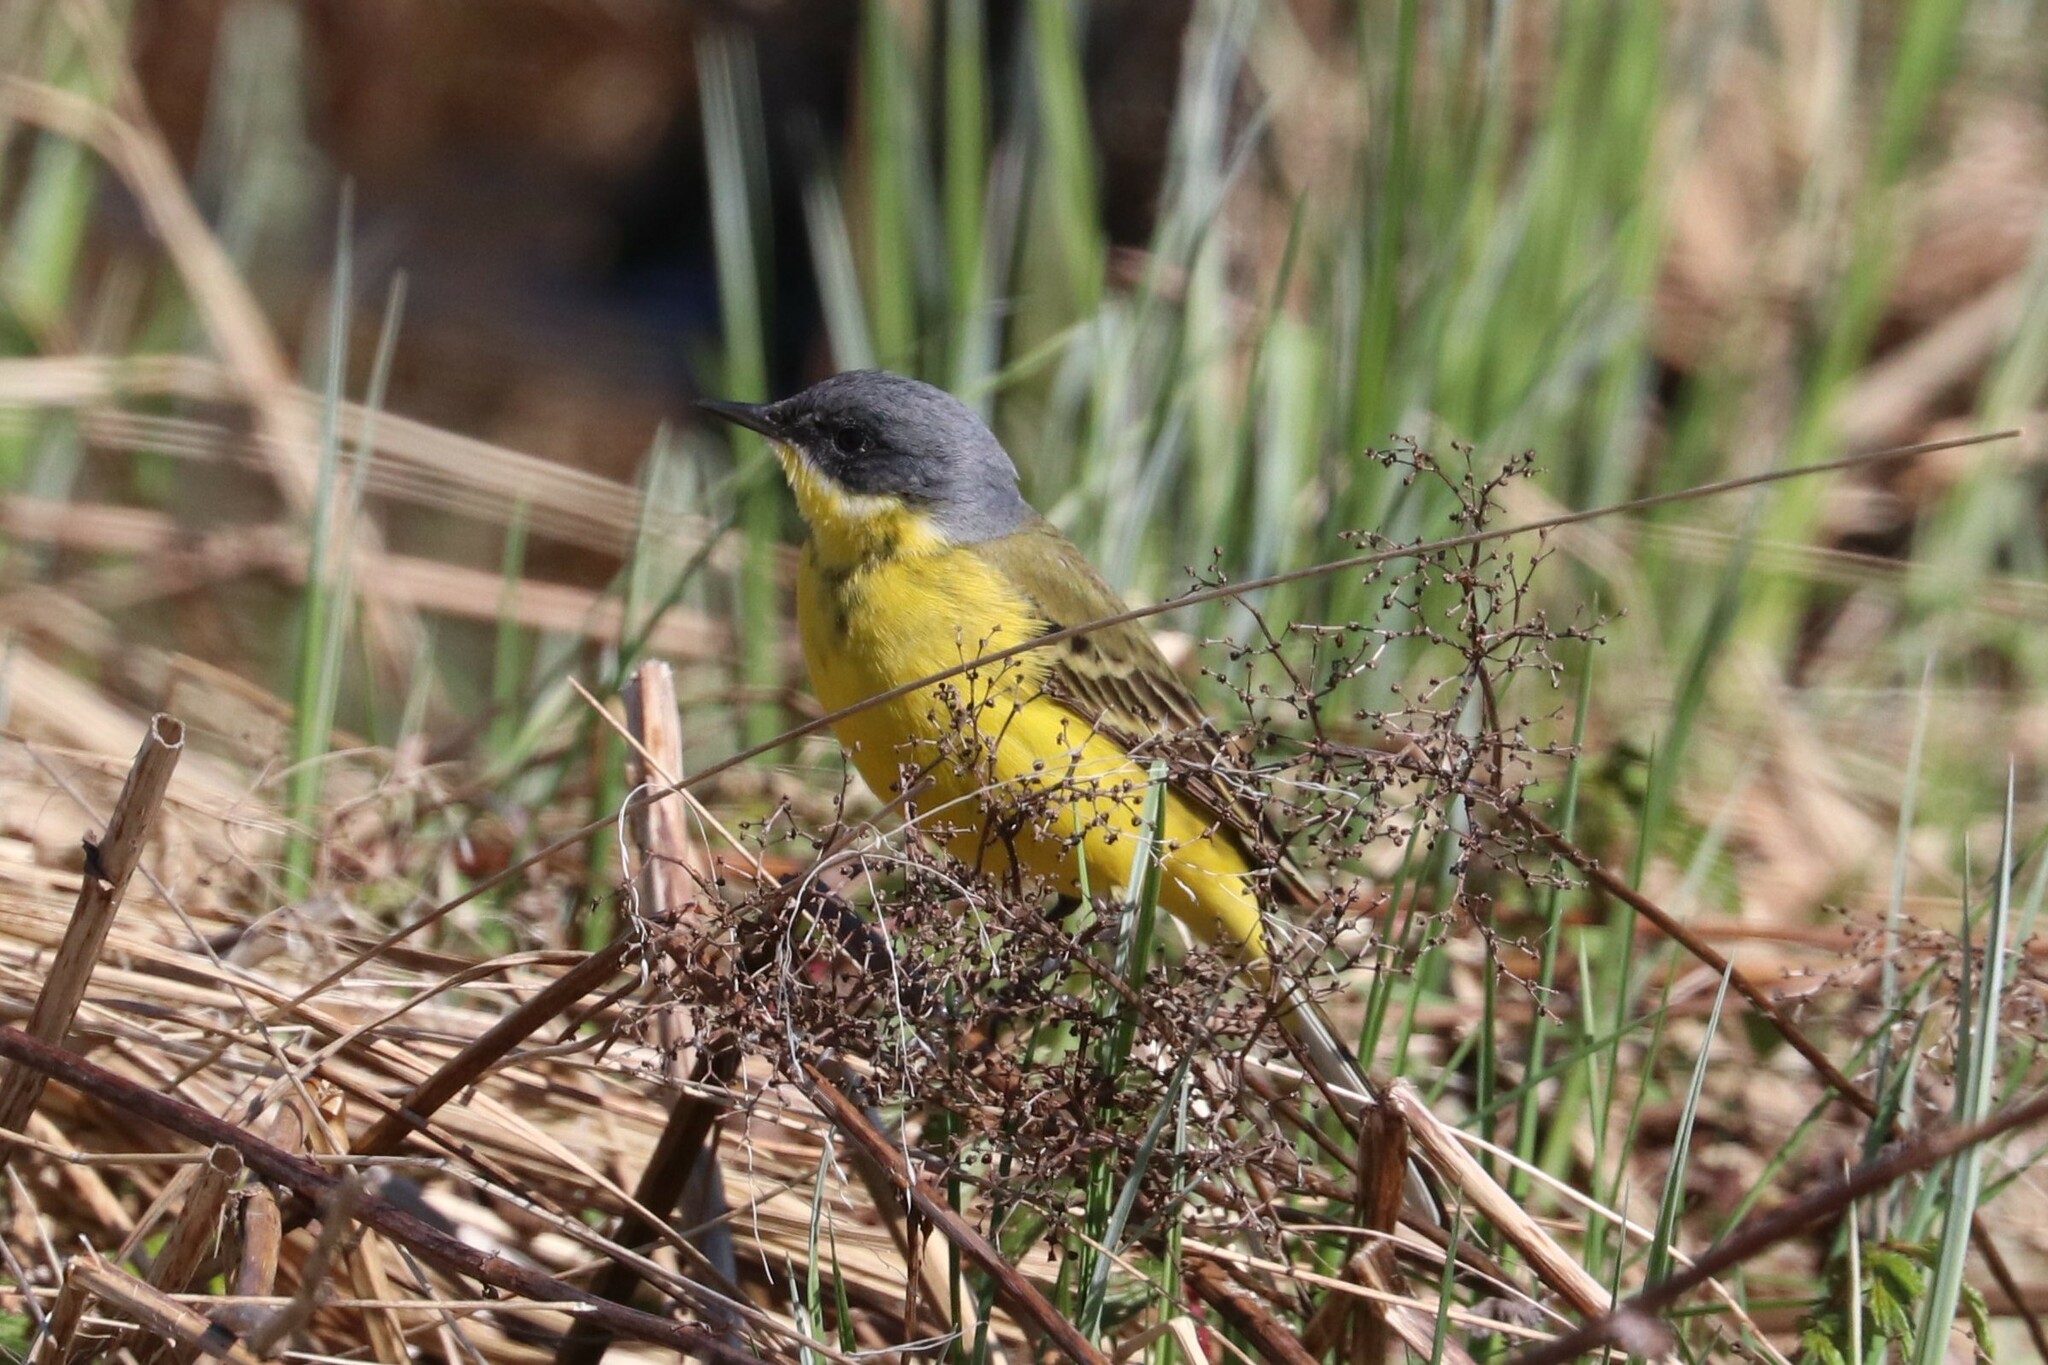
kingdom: Animalia
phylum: Chordata
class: Aves
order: Passeriformes
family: Motacillidae
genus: Motacilla
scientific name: Motacilla flava
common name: Western yellow wagtail
